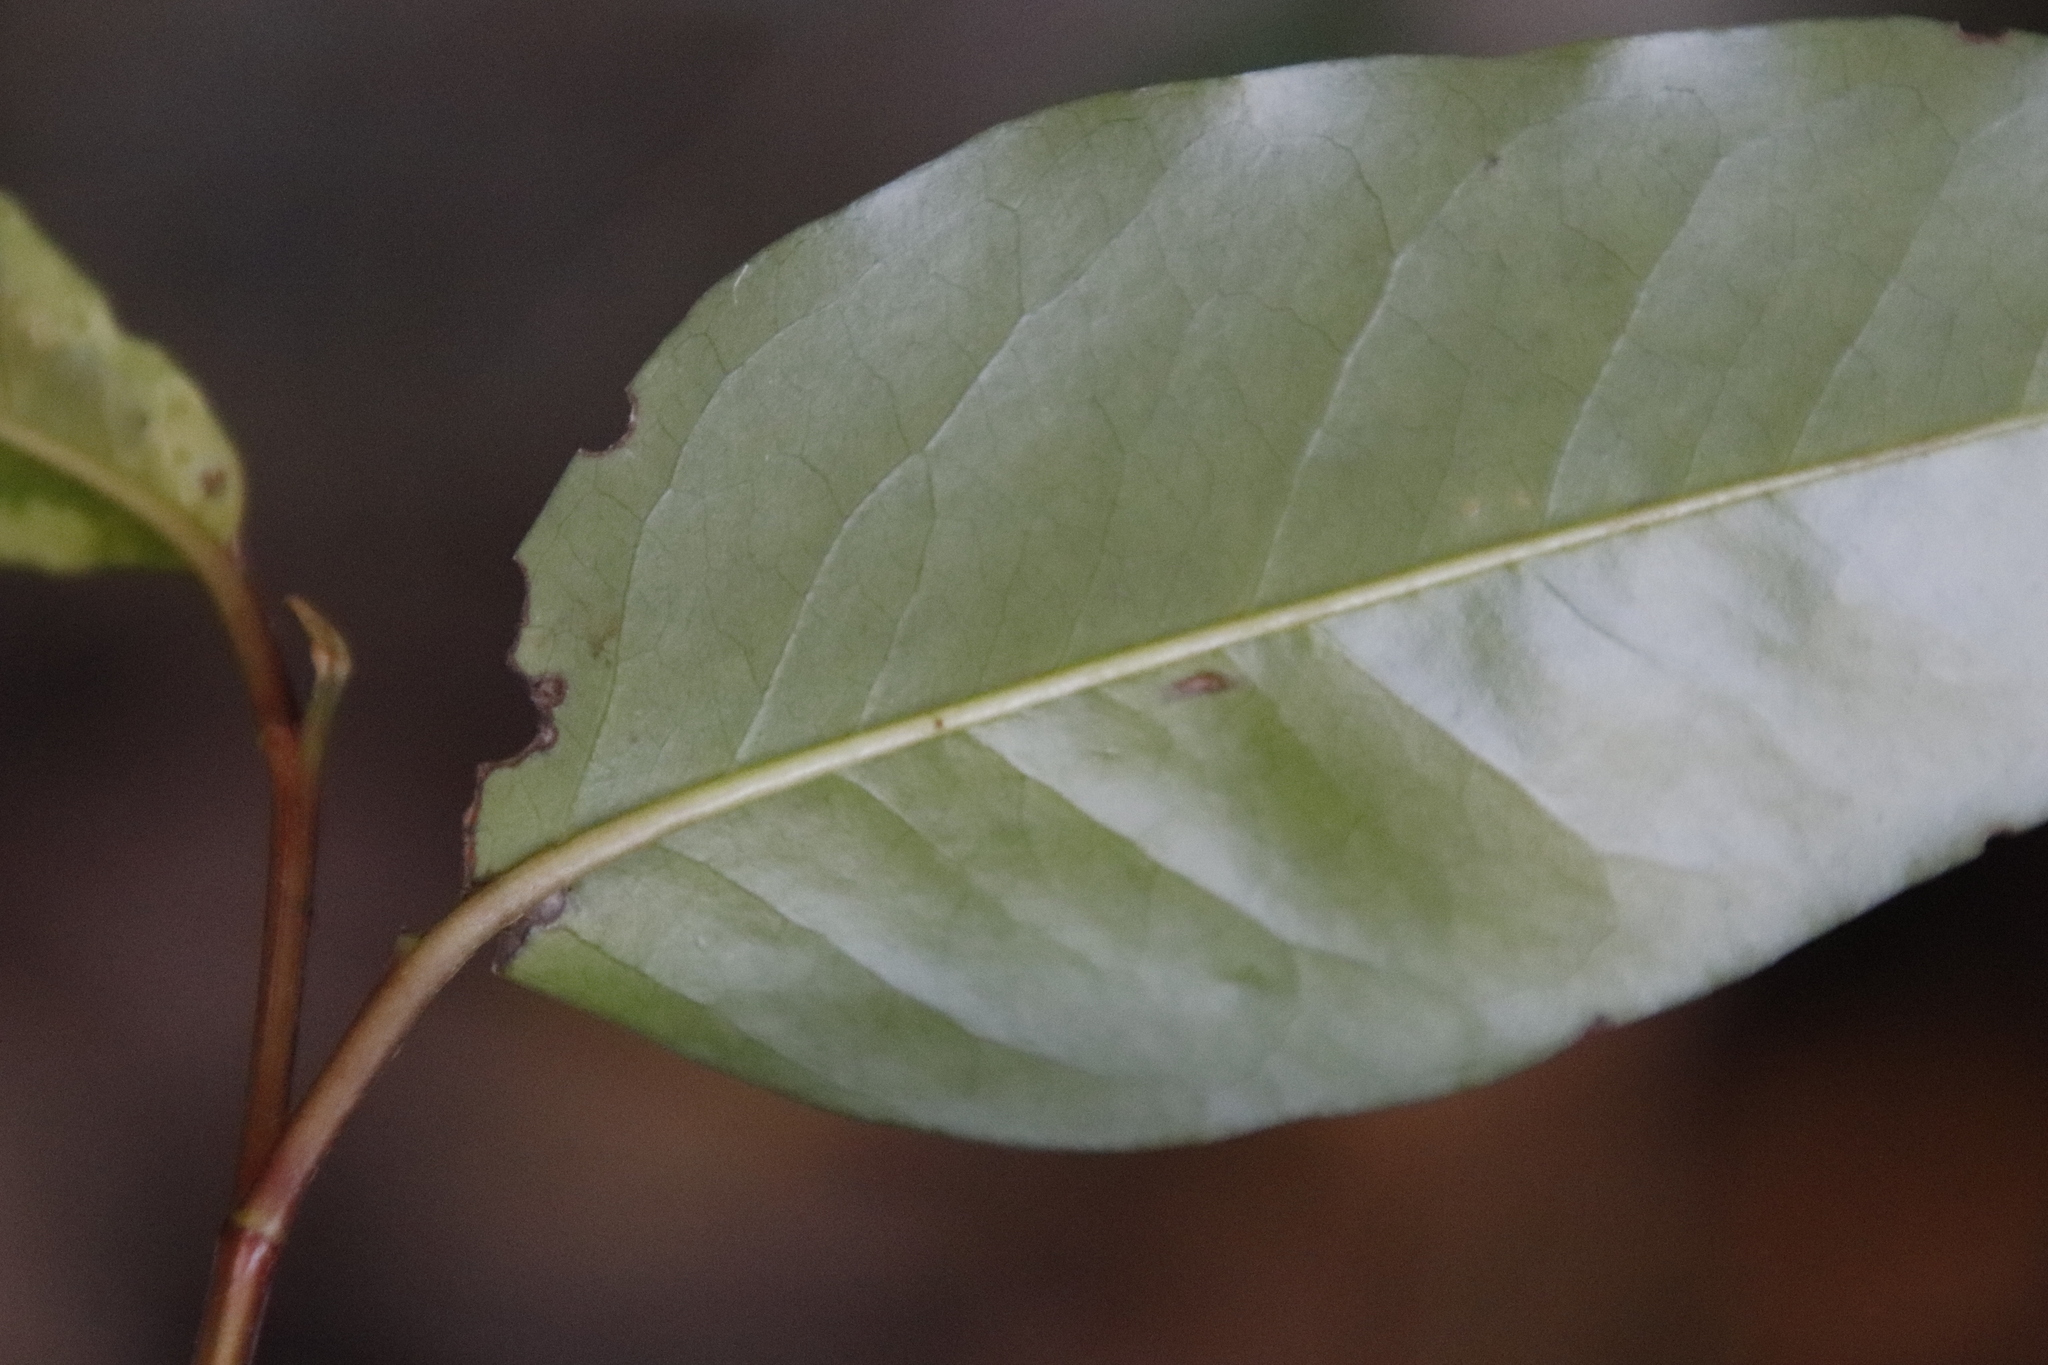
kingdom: Plantae
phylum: Tracheophyta
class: Magnoliopsida
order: Aquifoliales
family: Aquifoliaceae
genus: Ilex
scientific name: Ilex mitis
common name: African holly
